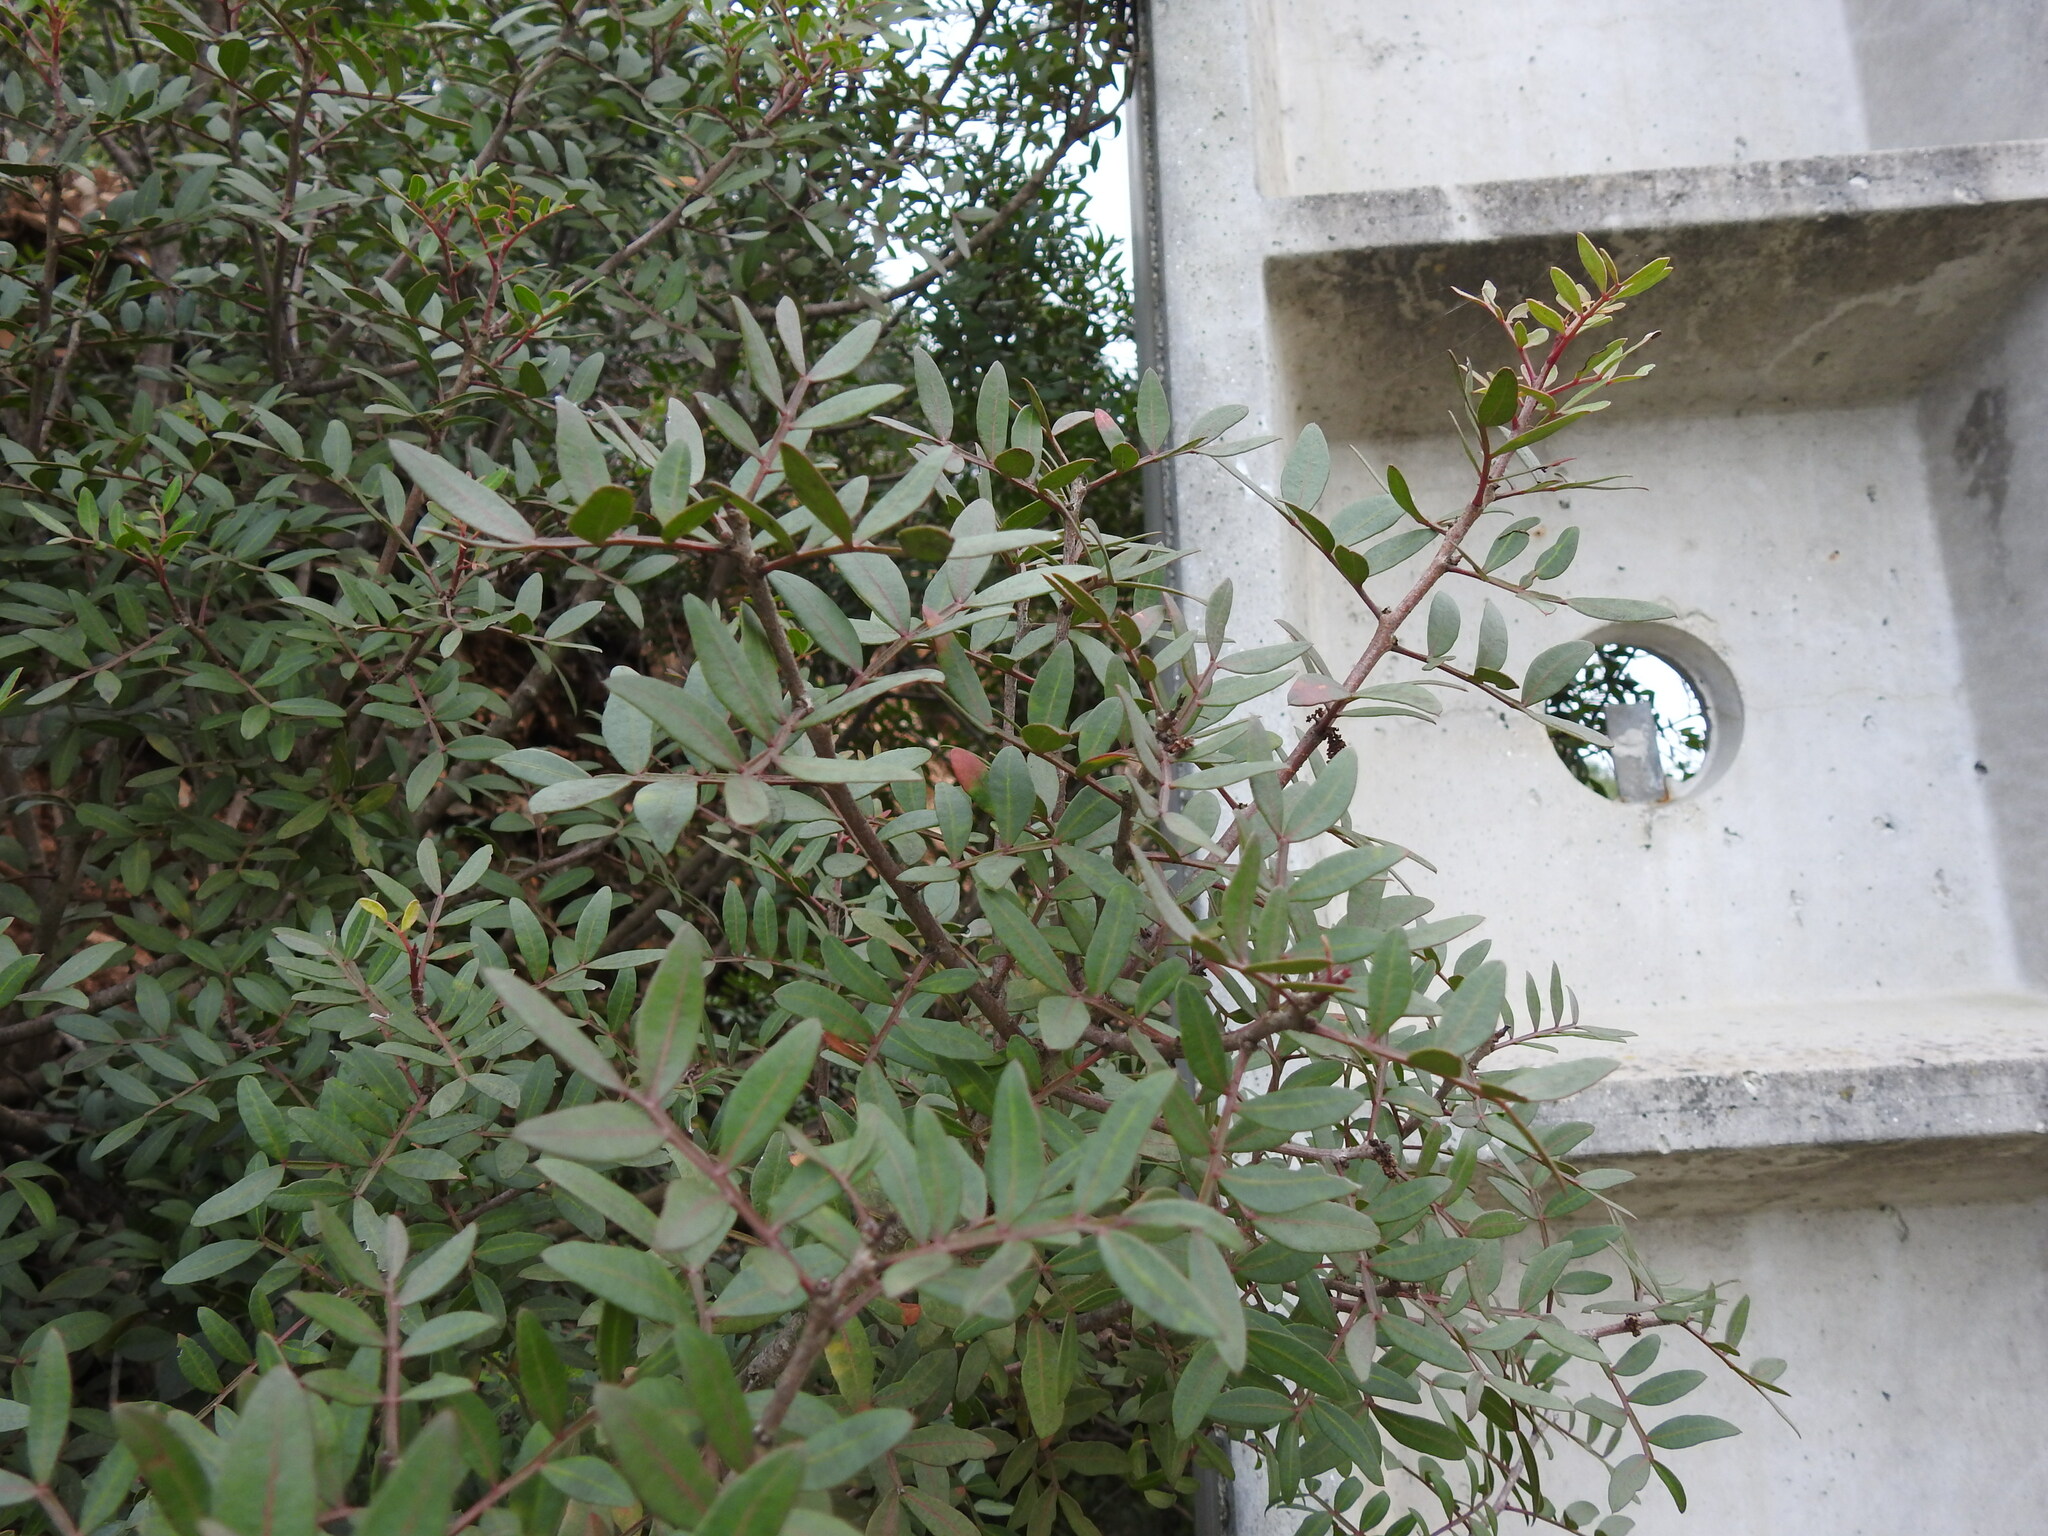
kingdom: Plantae
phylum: Tracheophyta
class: Magnoliopsida
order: Sapindales
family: Anacardiaceae
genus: Pistacia
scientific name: Pistacia lentiscus
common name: Lentisk
